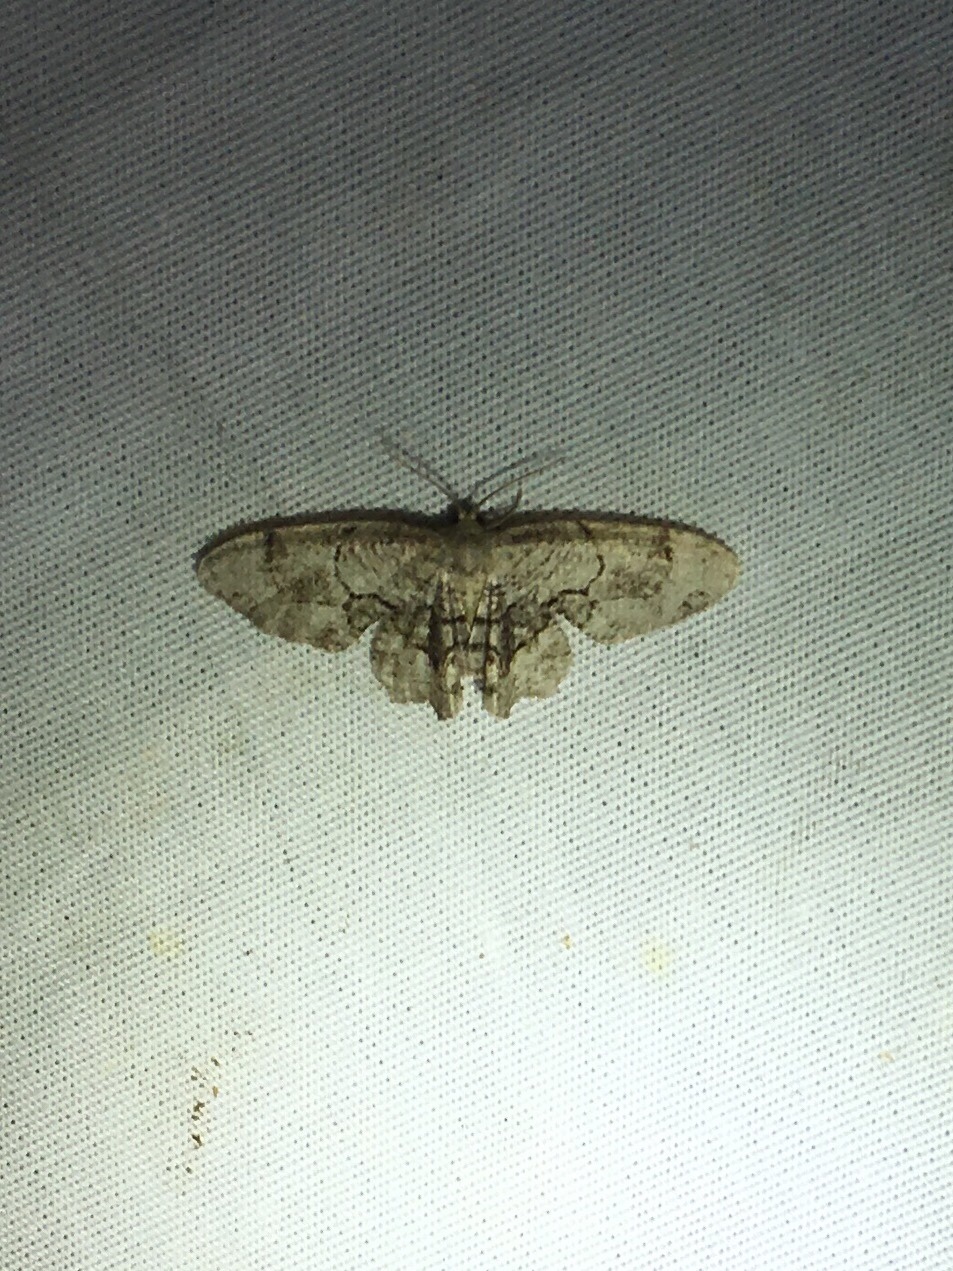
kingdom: Animalia
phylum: Arthropoda
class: Insecta
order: Lepidoptera
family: Uraniidae
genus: Epiplema
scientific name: Epiplema Callizzia amorata
